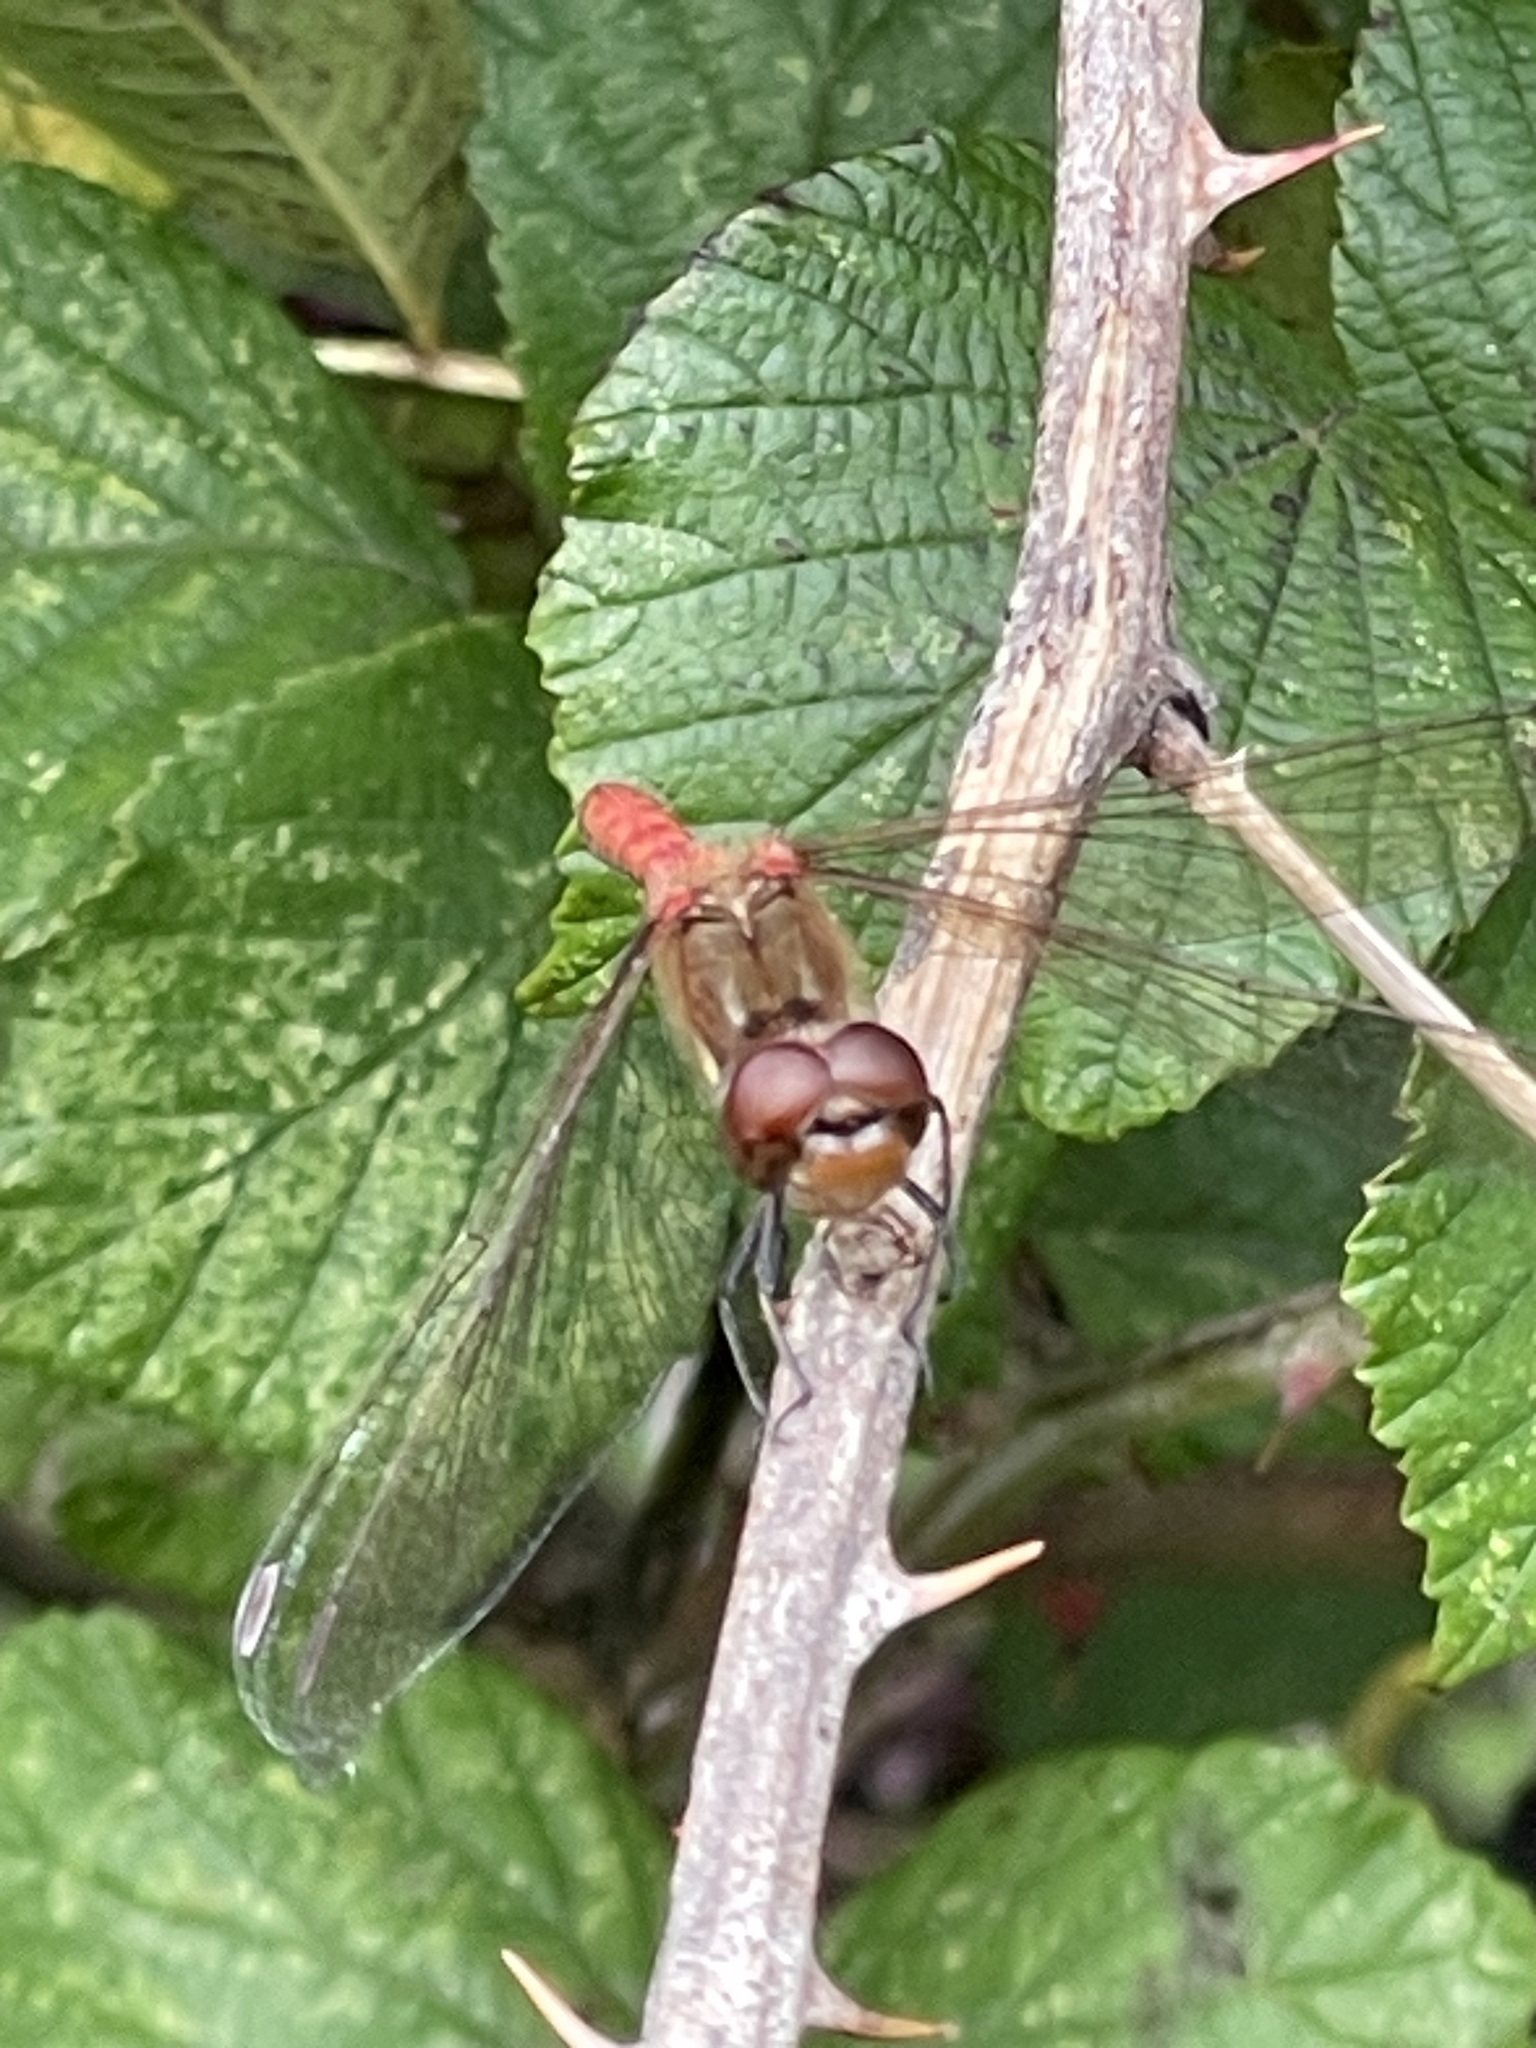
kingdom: Animalia
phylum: Arthropoda
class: Insecta
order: Odonata
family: Libellulidae
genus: Sympetrum
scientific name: Sympetrum striolatum
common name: Common darter
